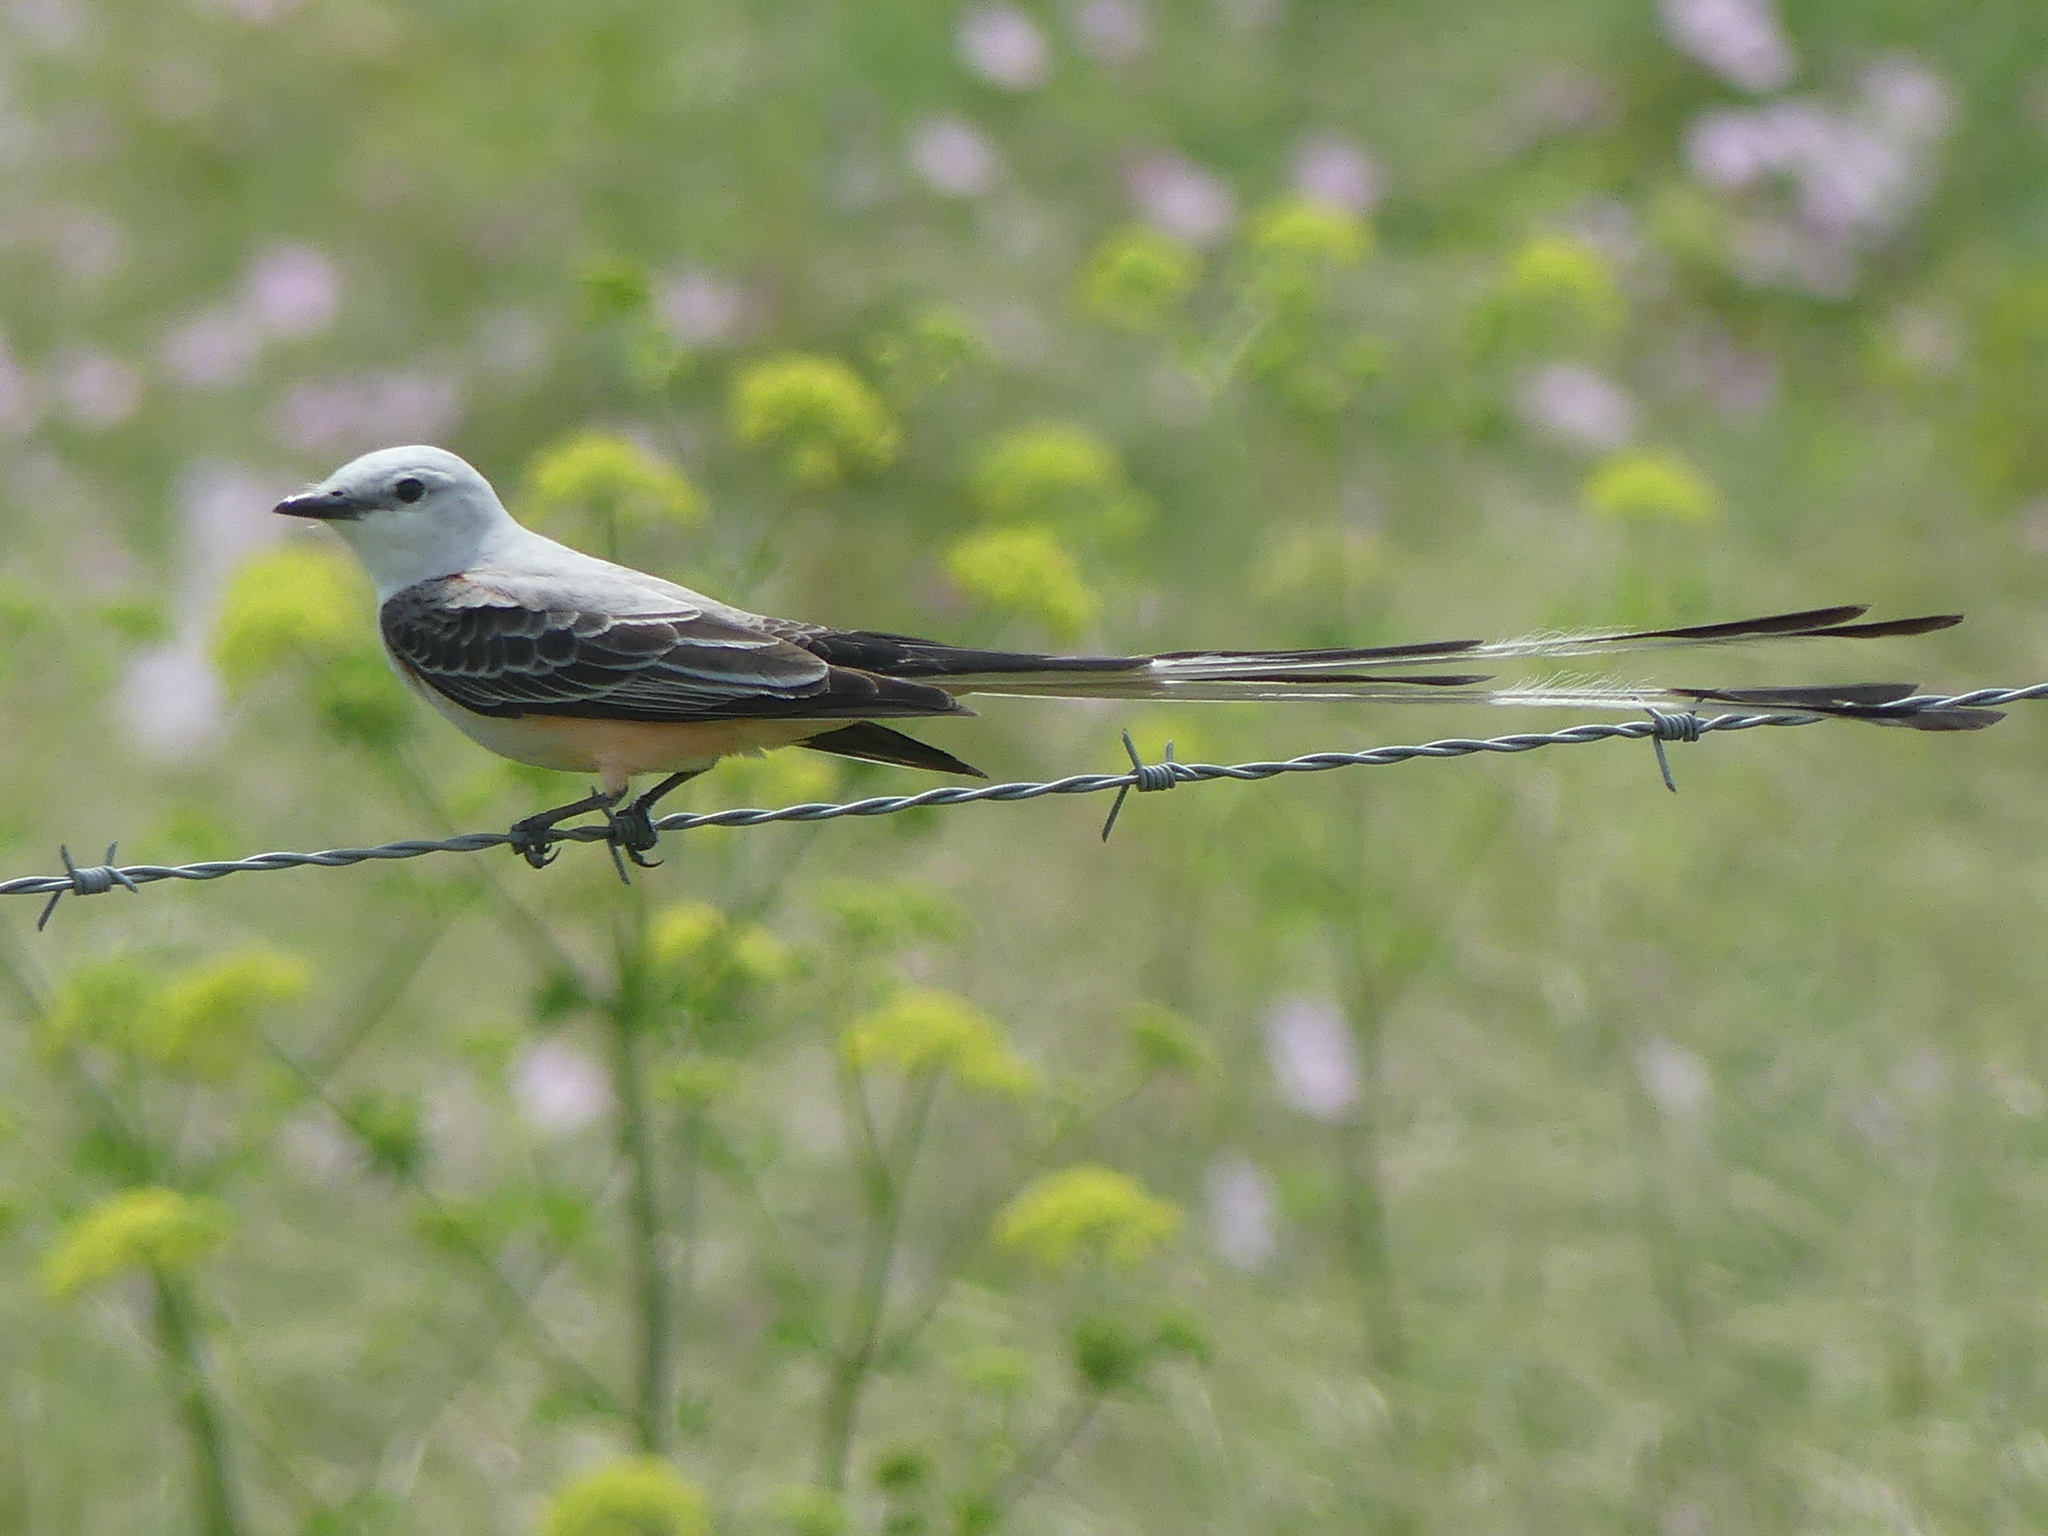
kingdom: Animalia
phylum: Chordata
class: Aves
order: Passeriformes
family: Tyrannidae
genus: Tyrannus
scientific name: Tyrannus forficatus
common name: Scissor-tailed flycatcher
